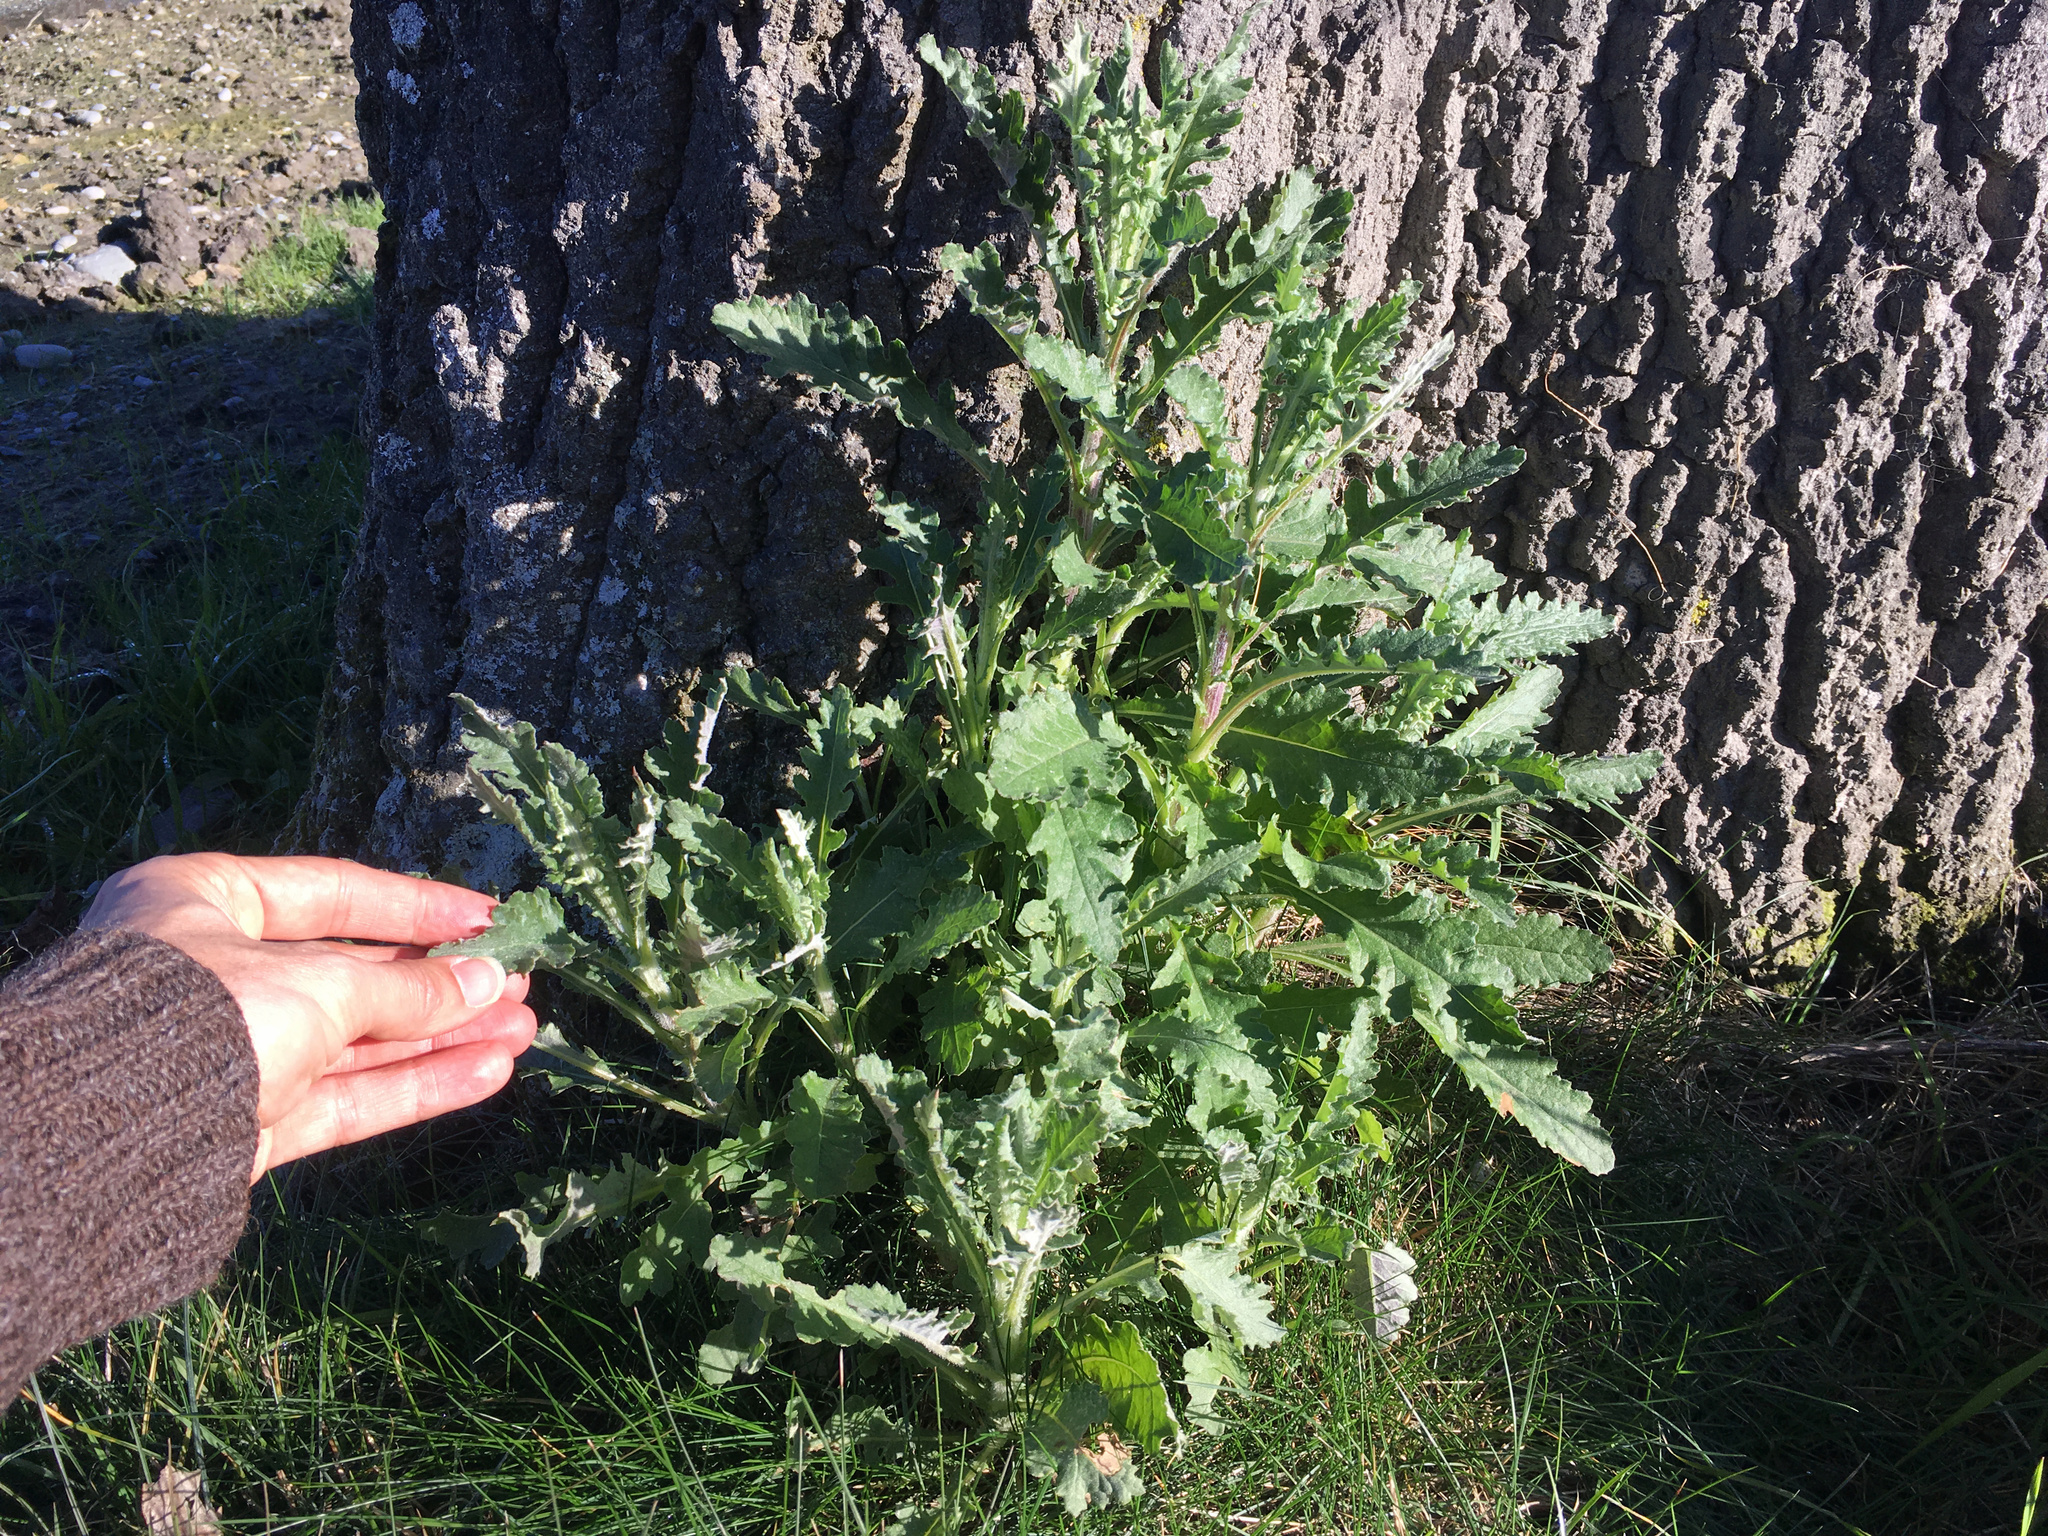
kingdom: Plantae
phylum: Tracheophyta
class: Magnoliopsida
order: Asterales
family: Asteraceae
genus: Senecio
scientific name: Senecio glomeratus
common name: Cutleaf burnweed
